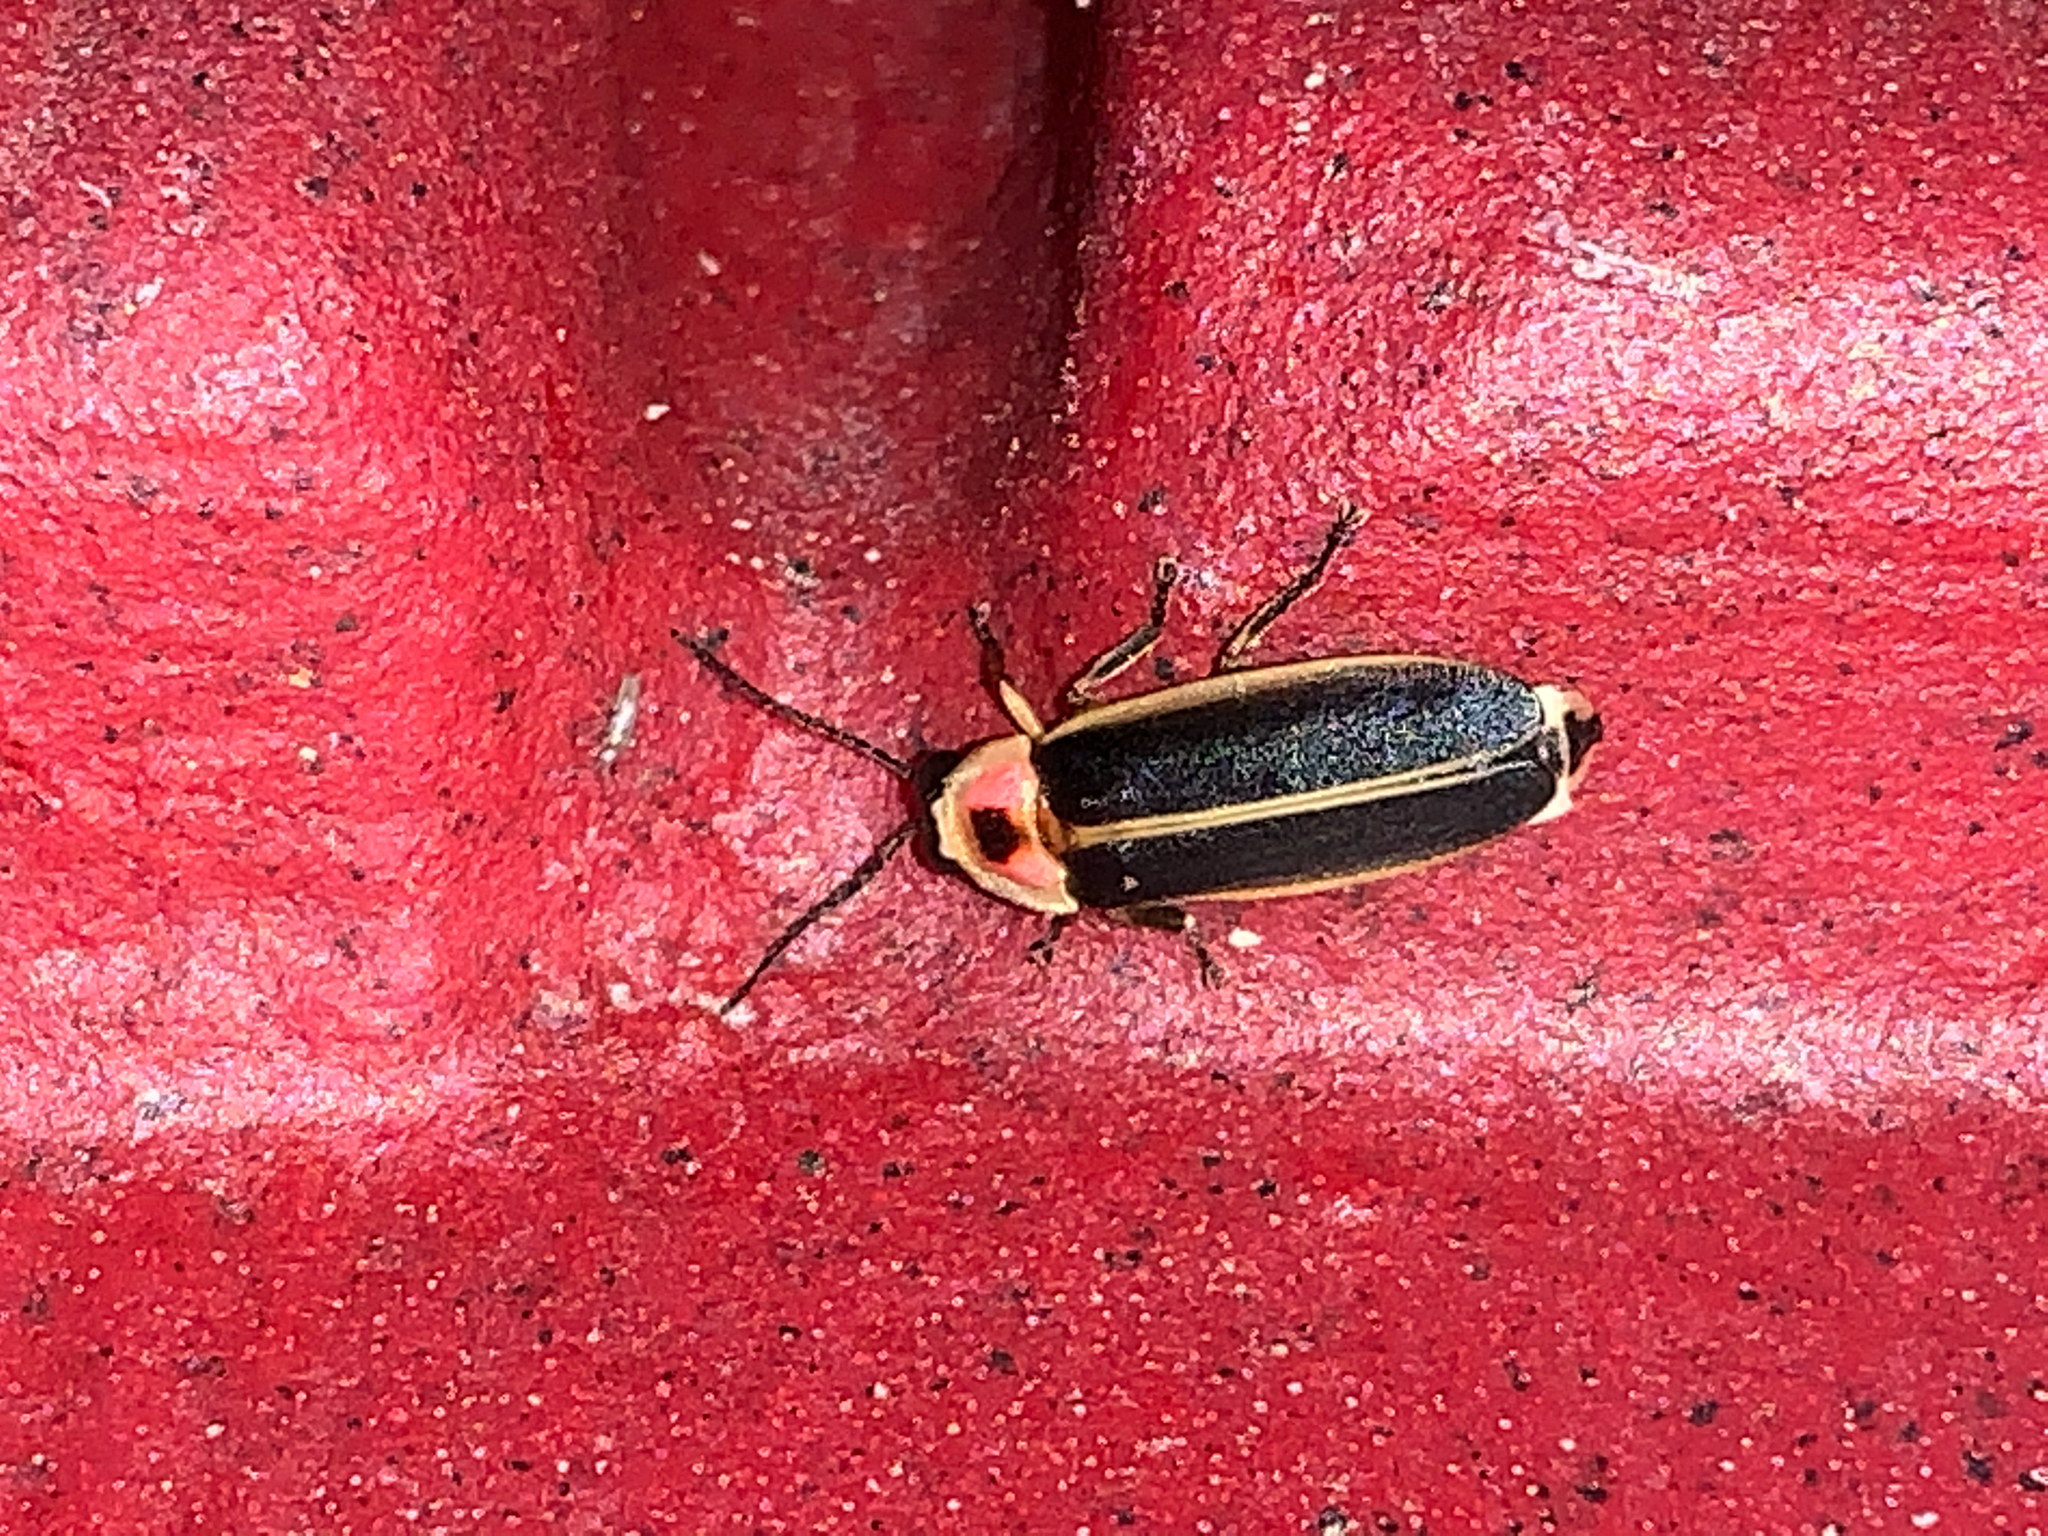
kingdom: Animalia
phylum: Arthropoda
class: Insecta
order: Coleoptera
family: Lampyridae
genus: Photinus
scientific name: Photinus pyralis
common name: Big dipper firefly
